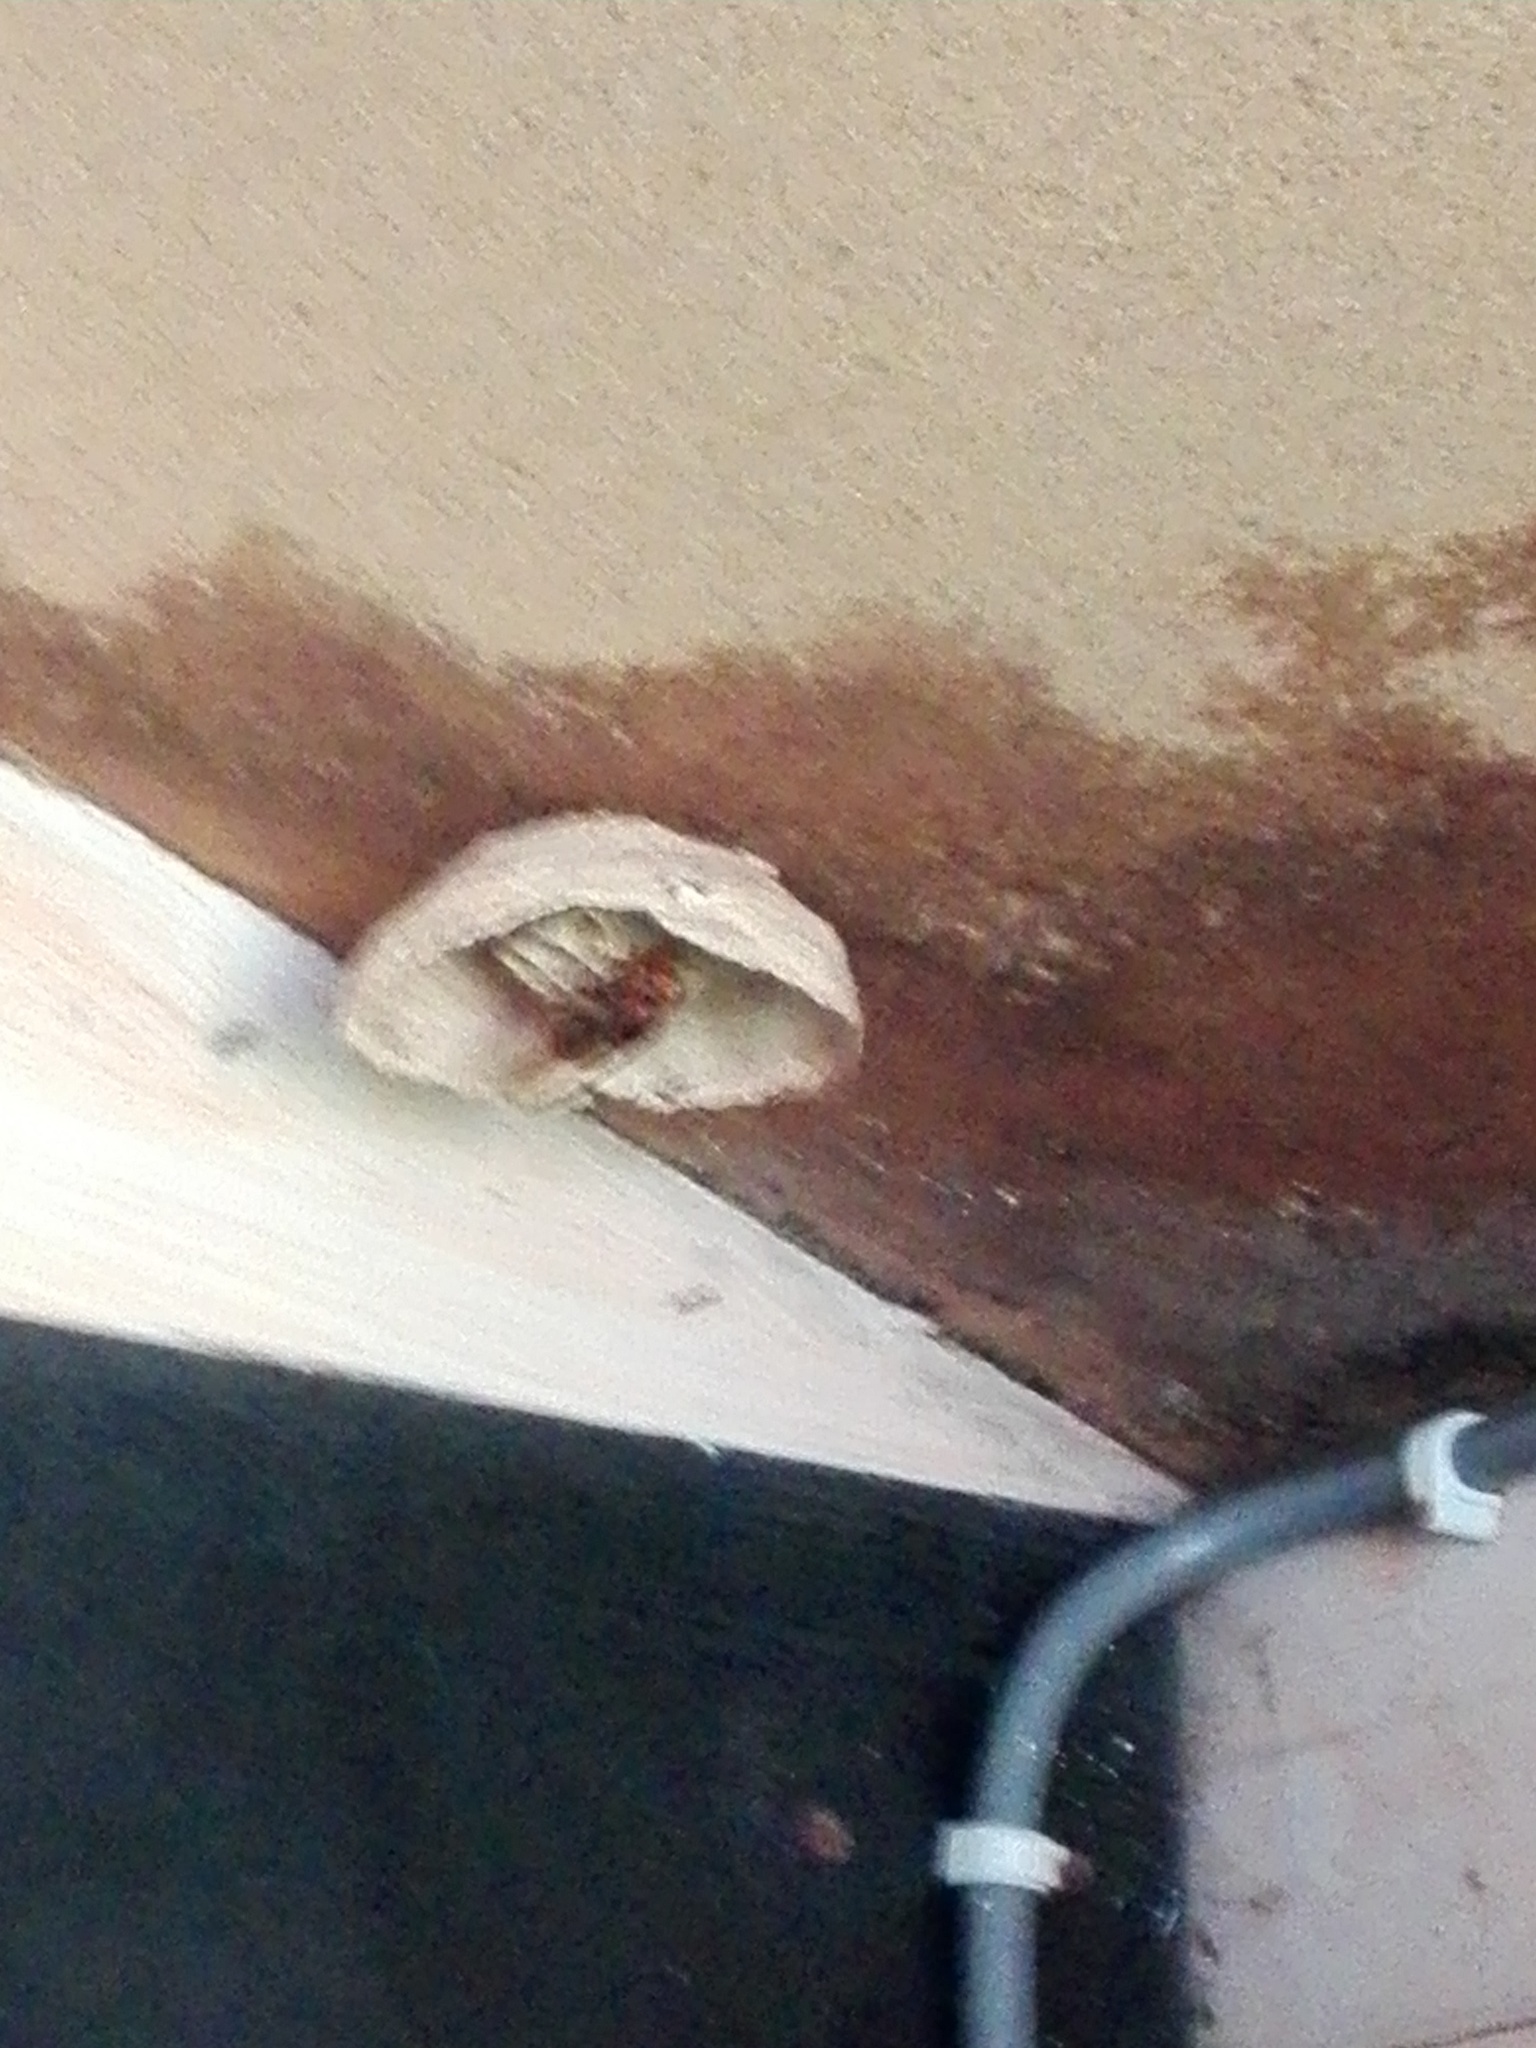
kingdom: Animalia
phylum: Arthropoda
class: Insecta
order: Hymenoptera
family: Vespidae
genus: Vespa
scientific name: Vespa crabro
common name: Hornet
